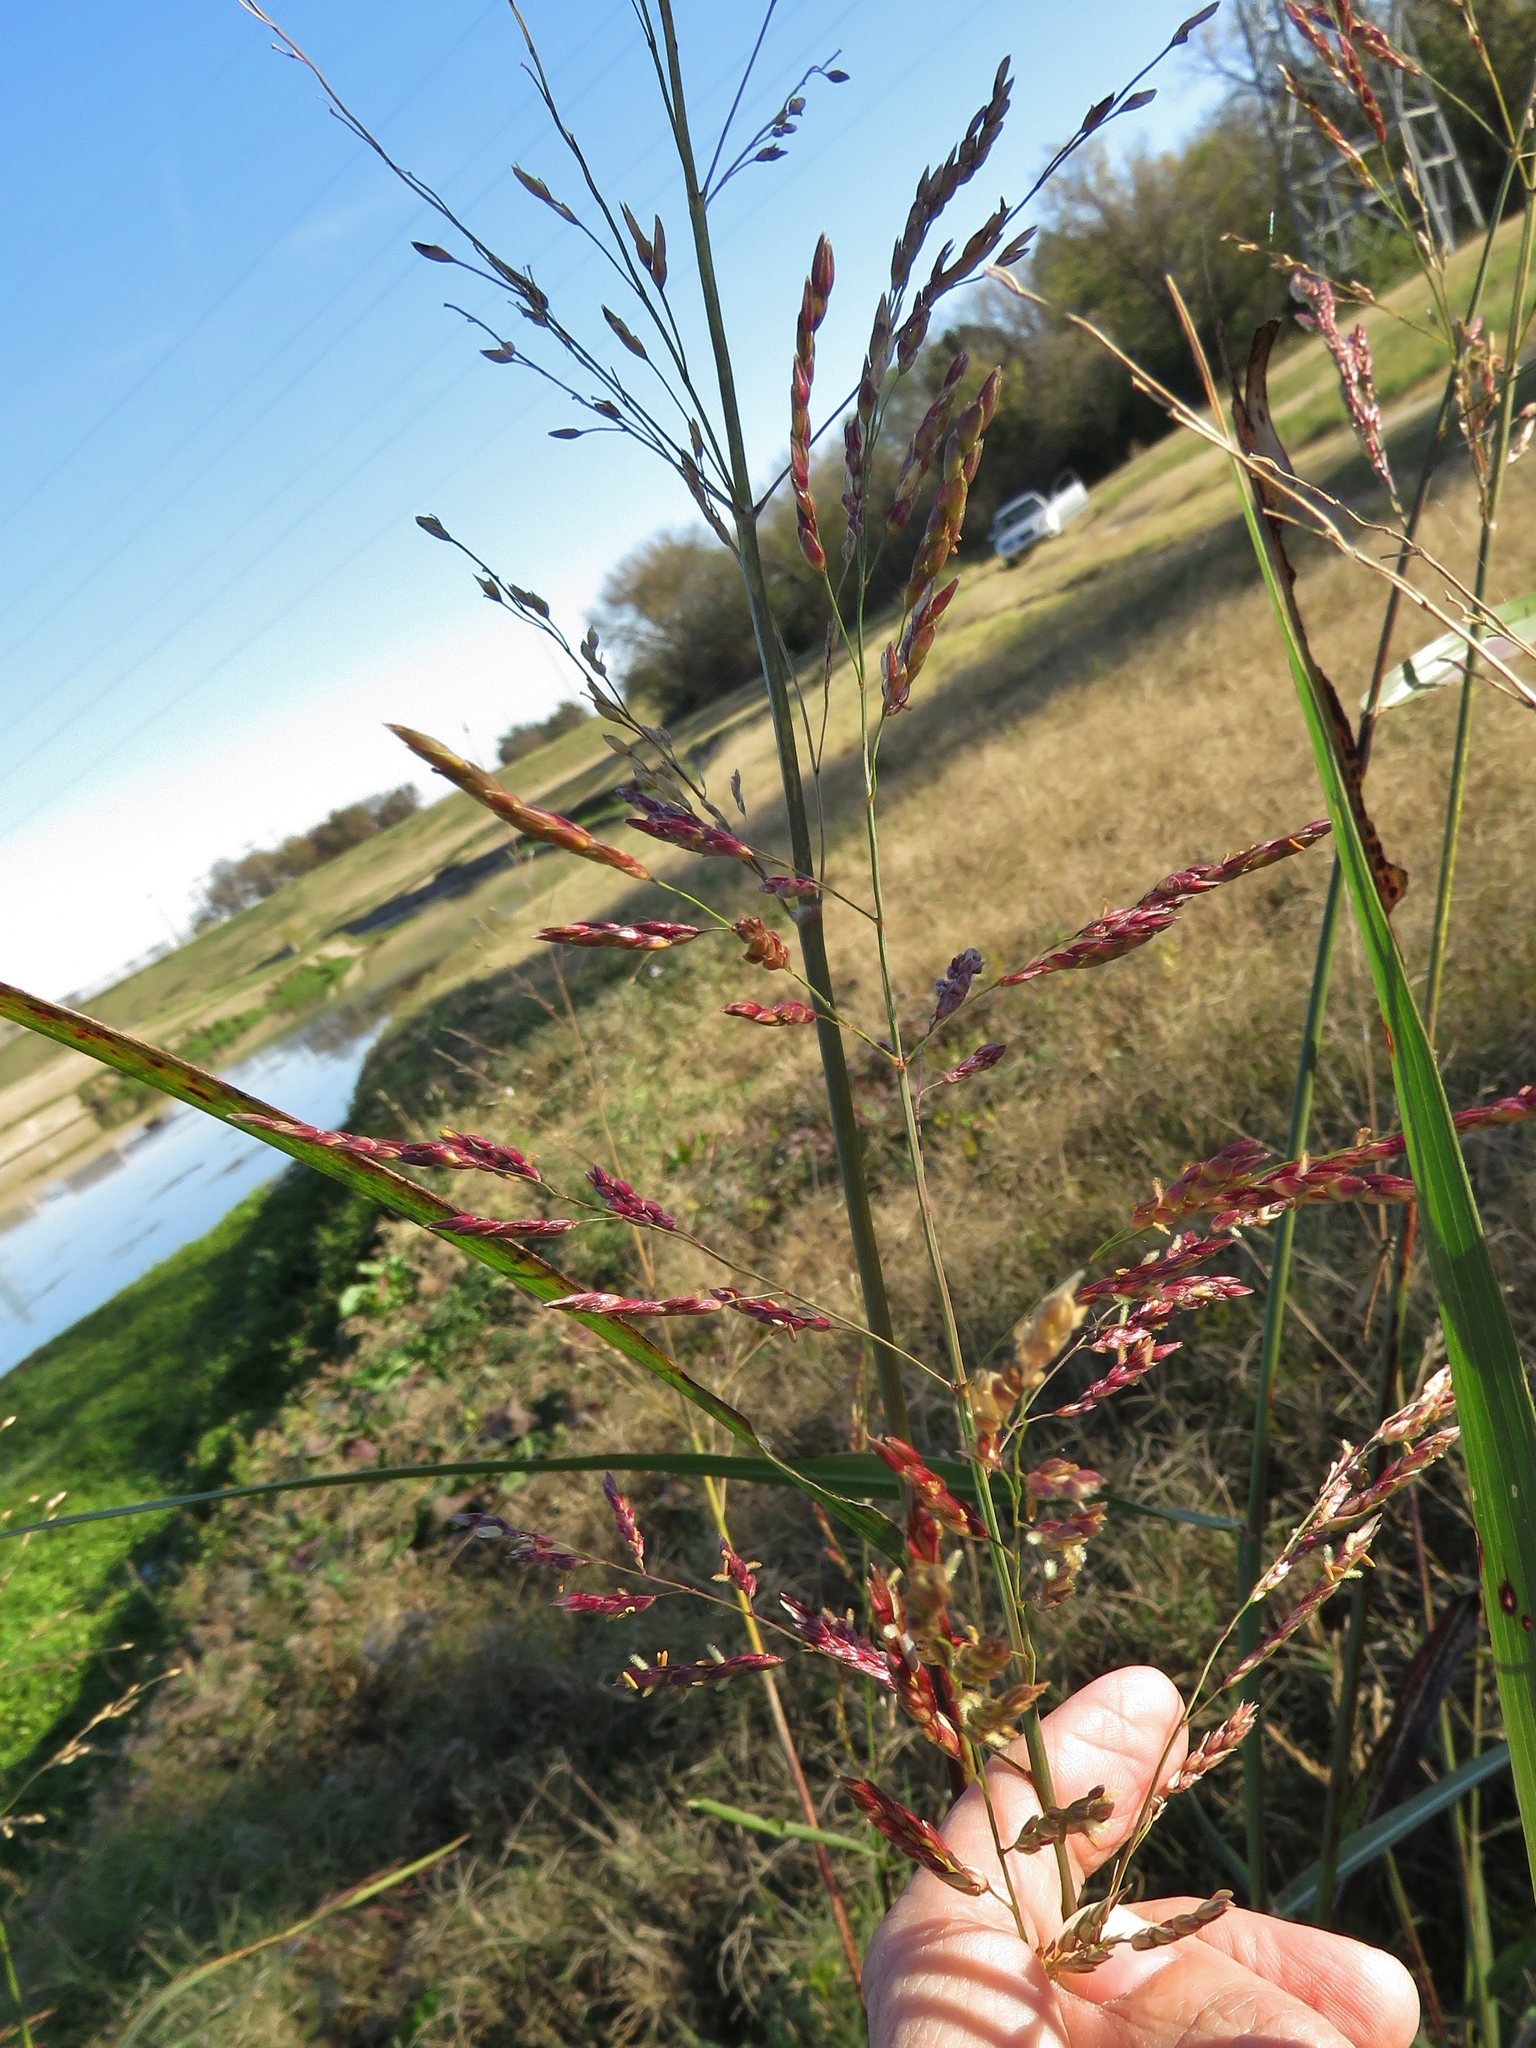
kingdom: Plantae
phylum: Tracheophyta
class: Liliopsida
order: Poales
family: Poaceae
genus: Sorghum
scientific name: Sorghum halepense
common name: Johnson-grass
